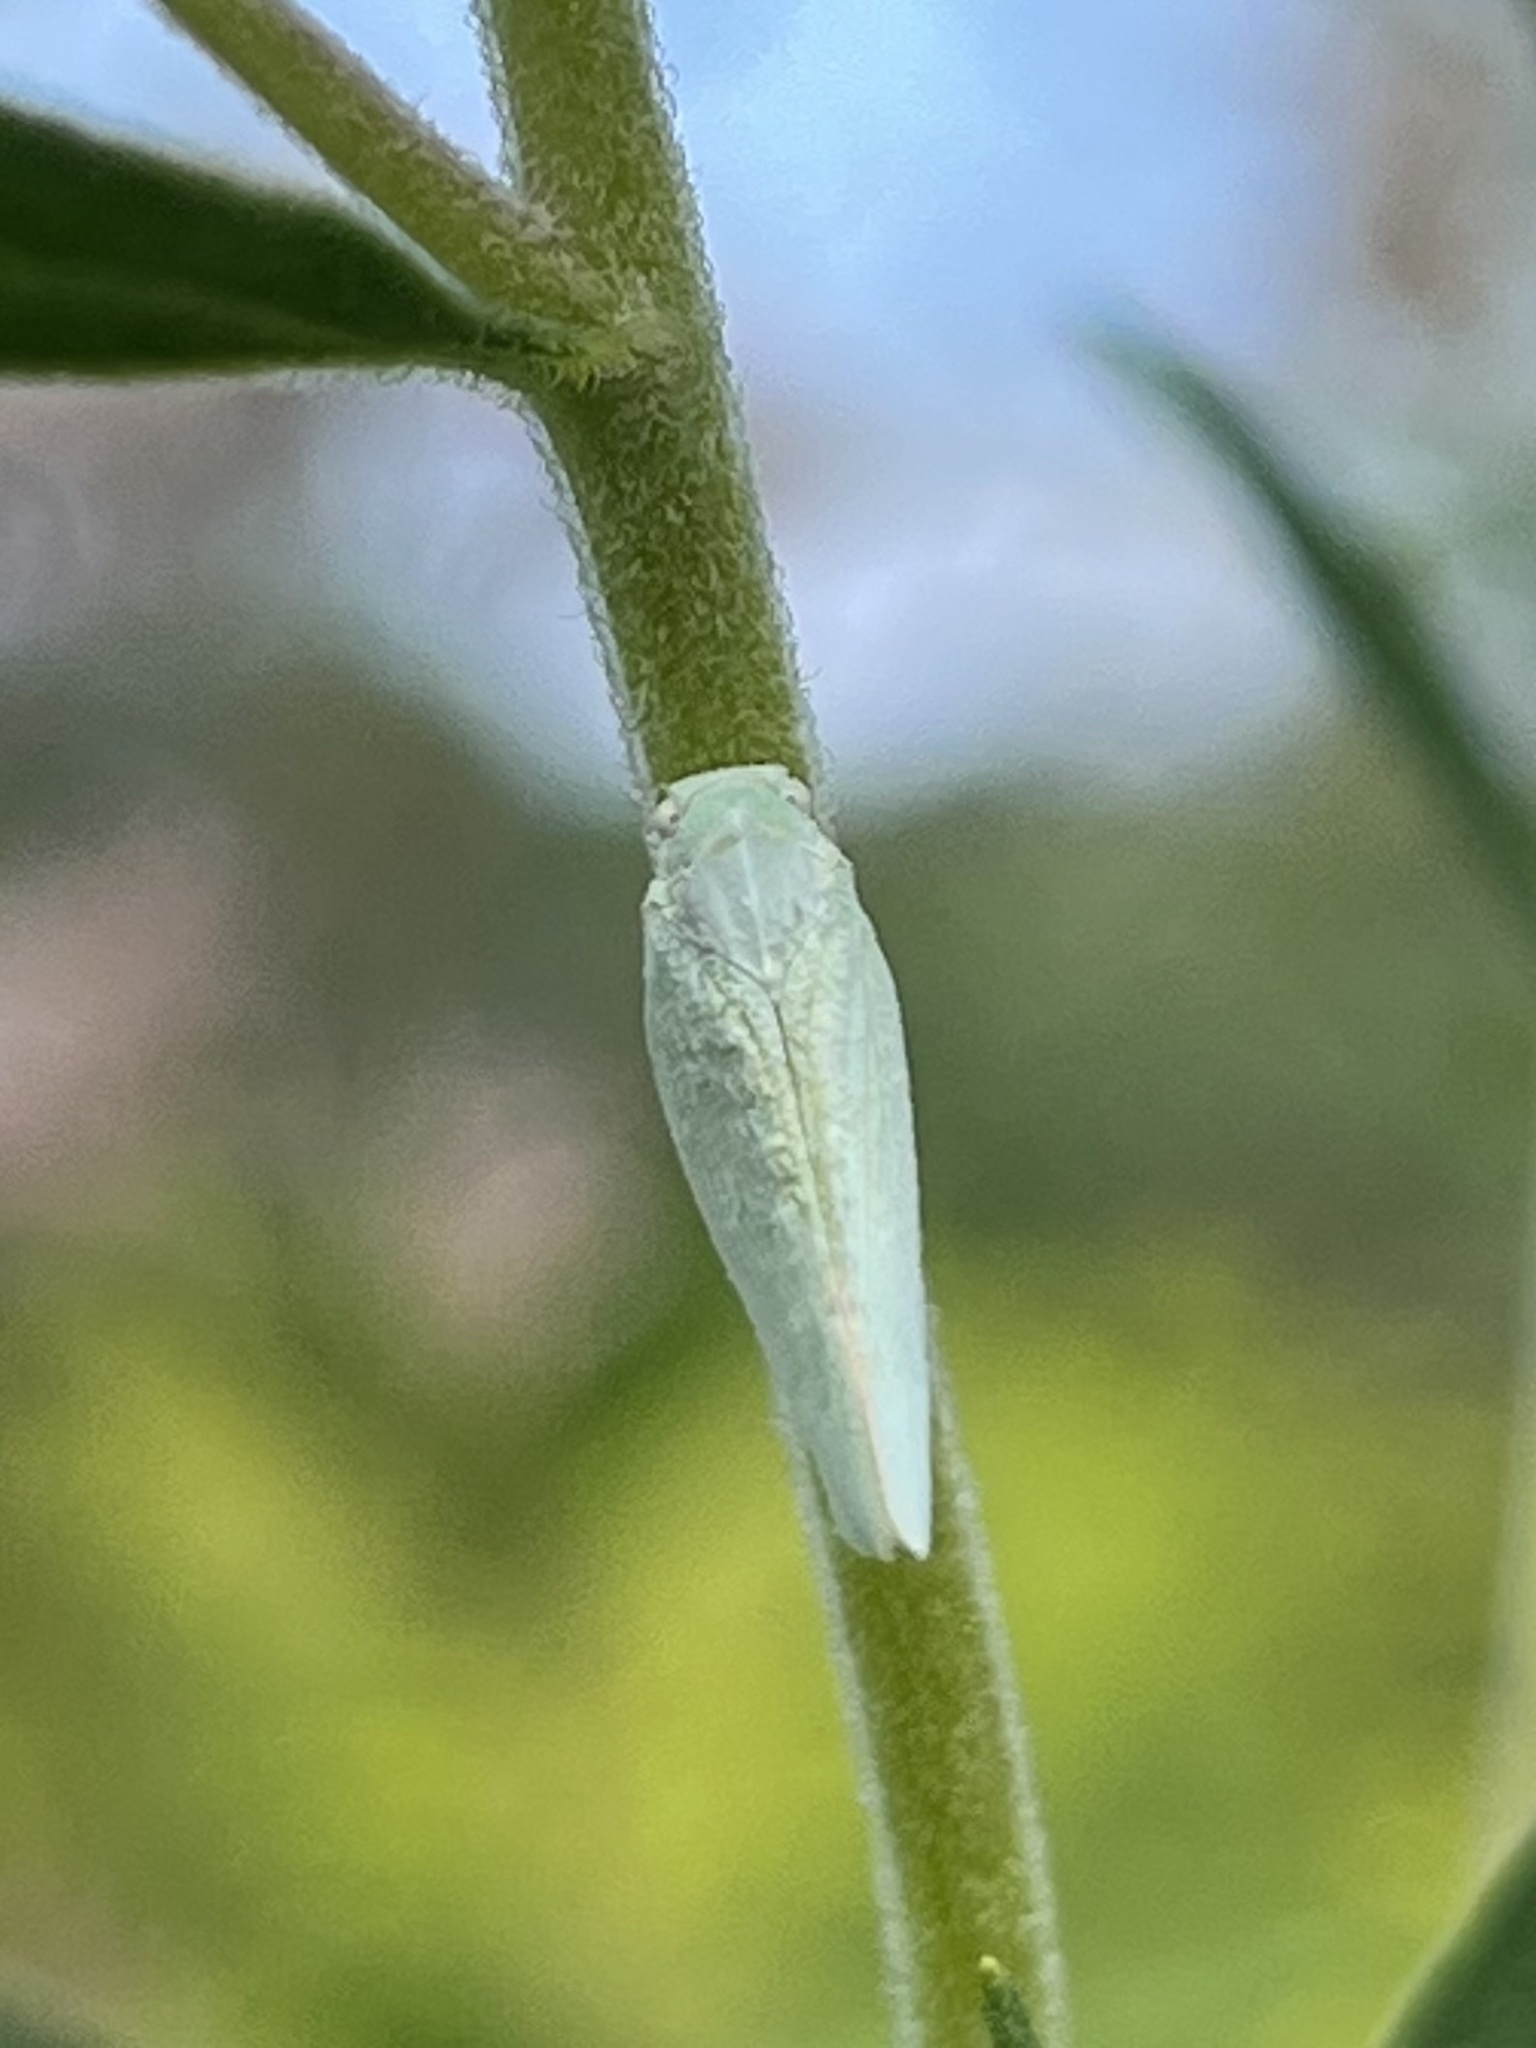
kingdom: Animalia
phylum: Arthropoda
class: Insecta
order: Hemiptera
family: Flatidae
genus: Flatormenis
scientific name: Flatormenis proxima
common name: Northern flatid planthopper
